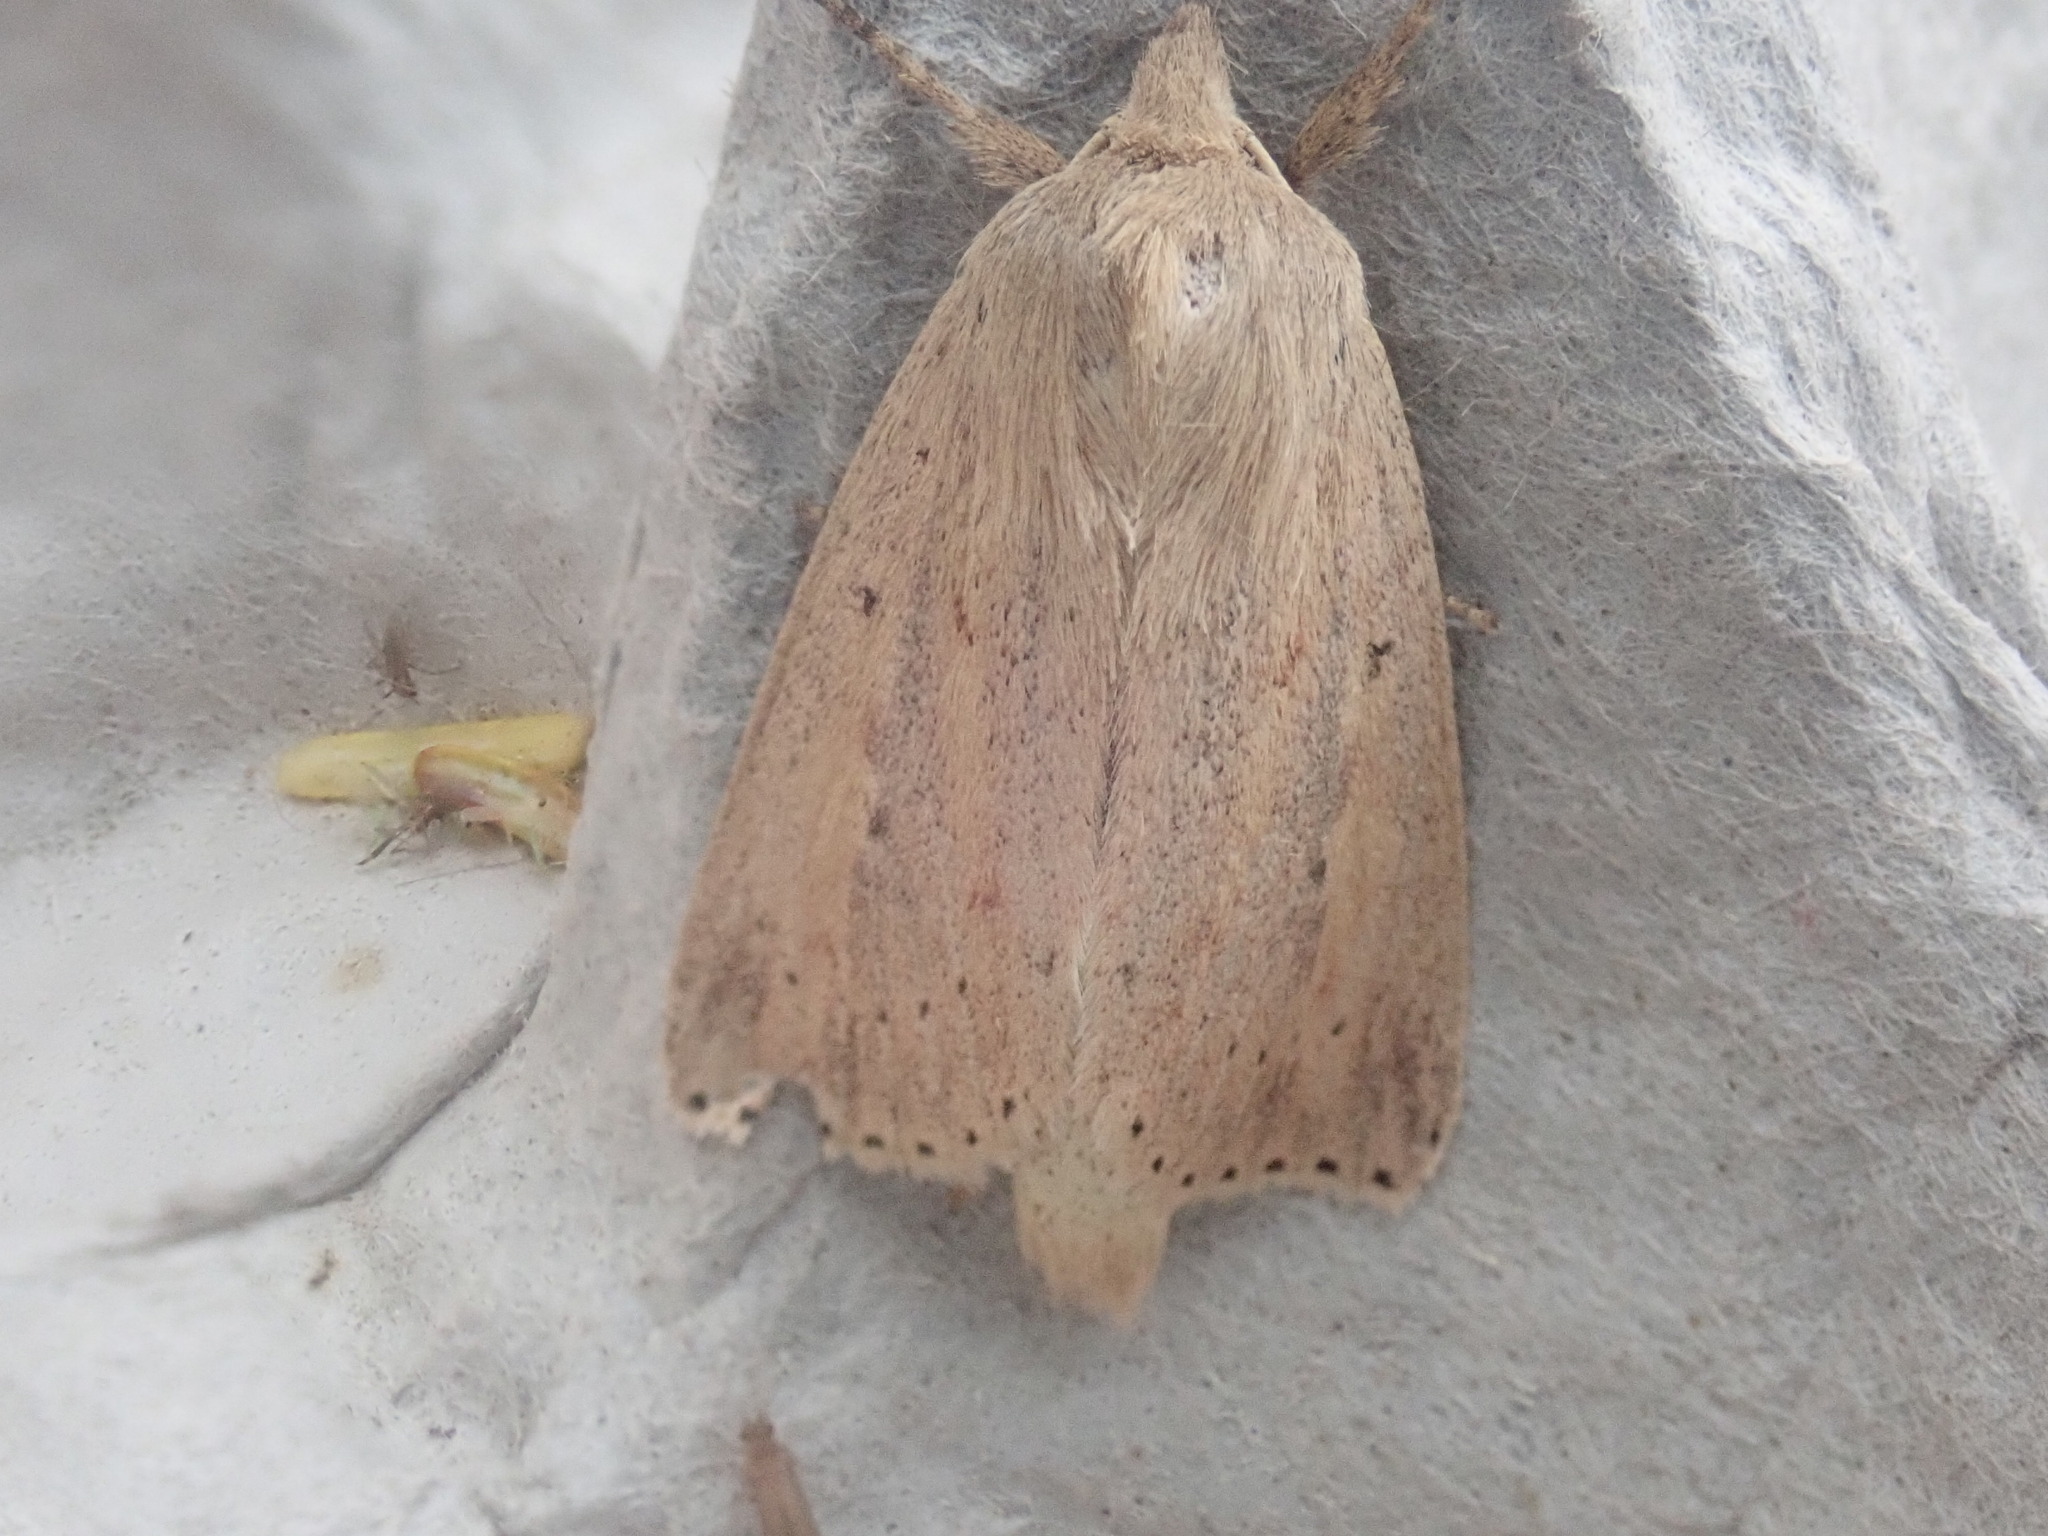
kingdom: Animalia
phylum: Arthropoda
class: Insecta
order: Lepidoptera
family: Noctuidae
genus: Globia
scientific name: Globia oblonga
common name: Oblong sedge borer moth
